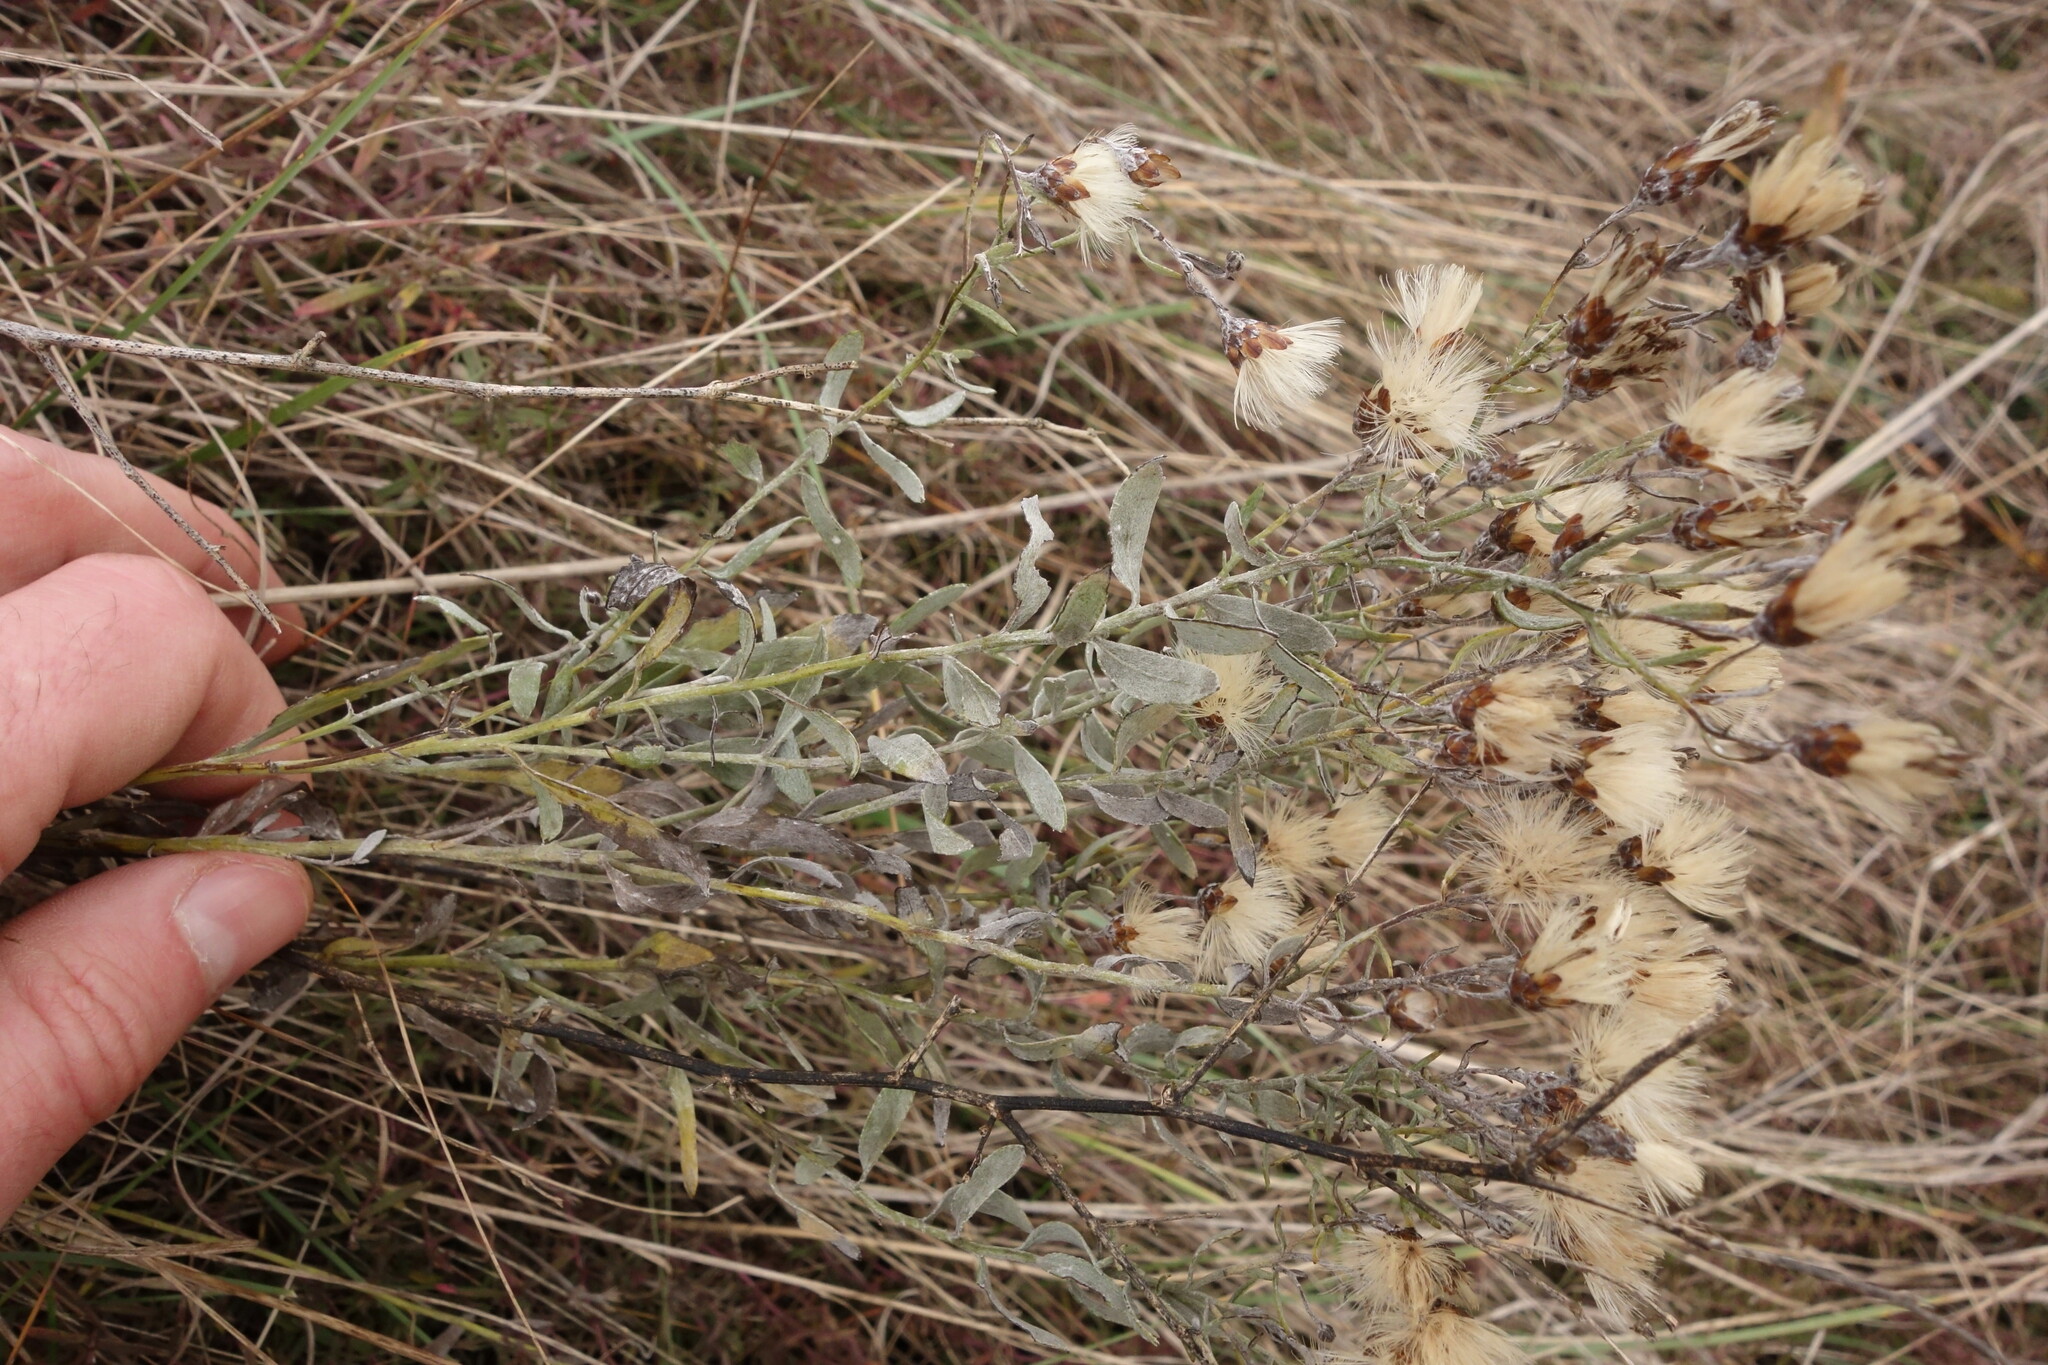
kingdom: Plantae
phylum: Tracheophyta
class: Magnoliopsida
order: Asterales
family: Asteraceae
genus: Galatella
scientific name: Galatella villosa
